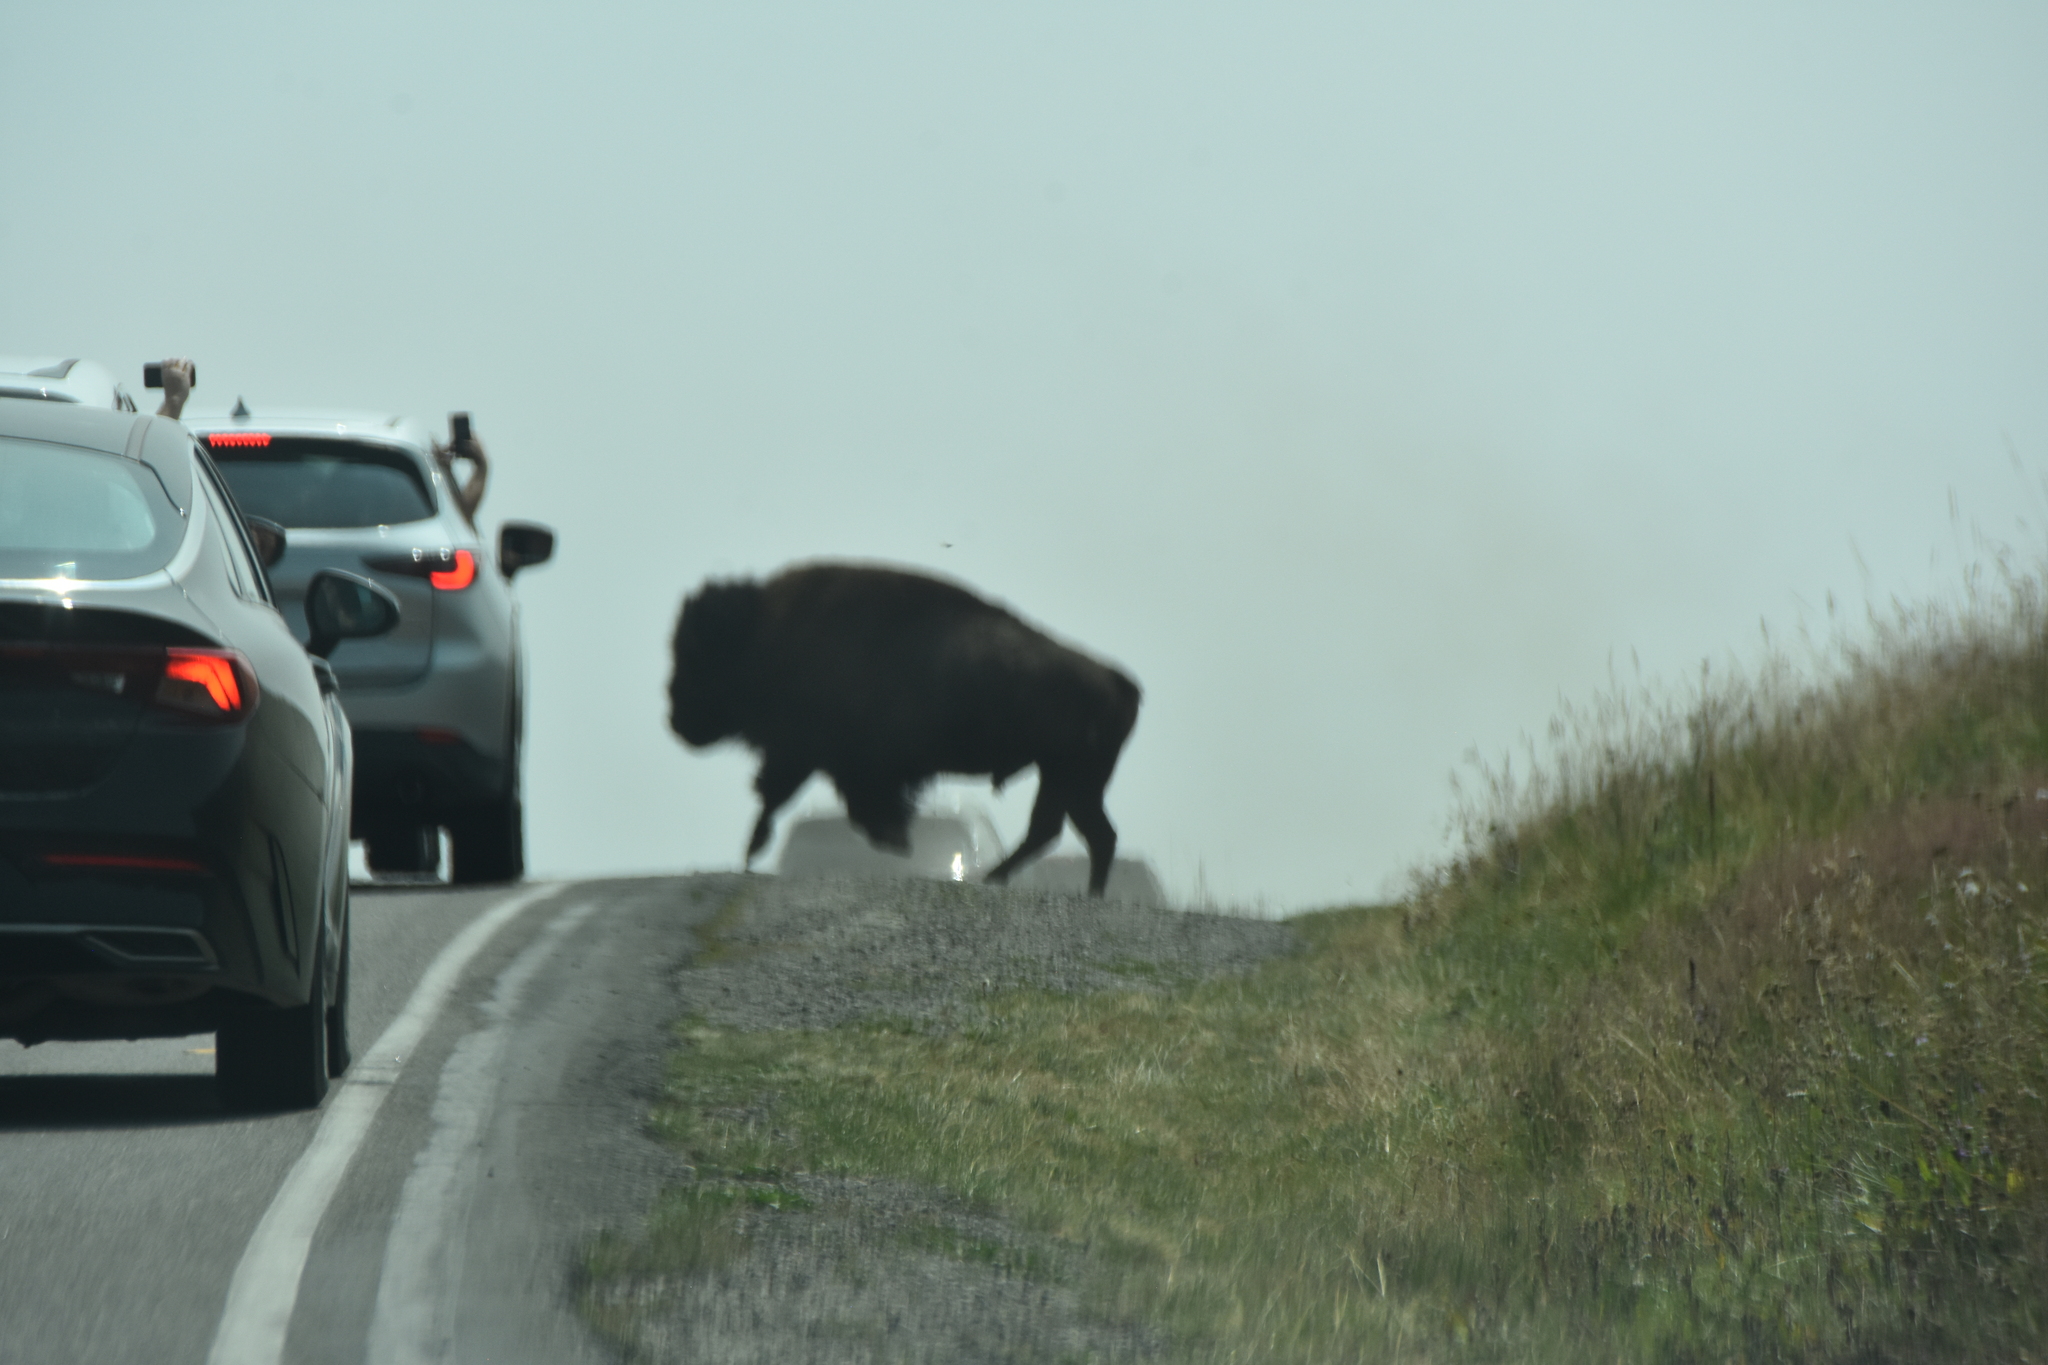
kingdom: Animalia
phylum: Chordata
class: Mammalia
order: Artiodactyla
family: Bovidae
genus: Bison
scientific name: Bison bison
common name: American bison
